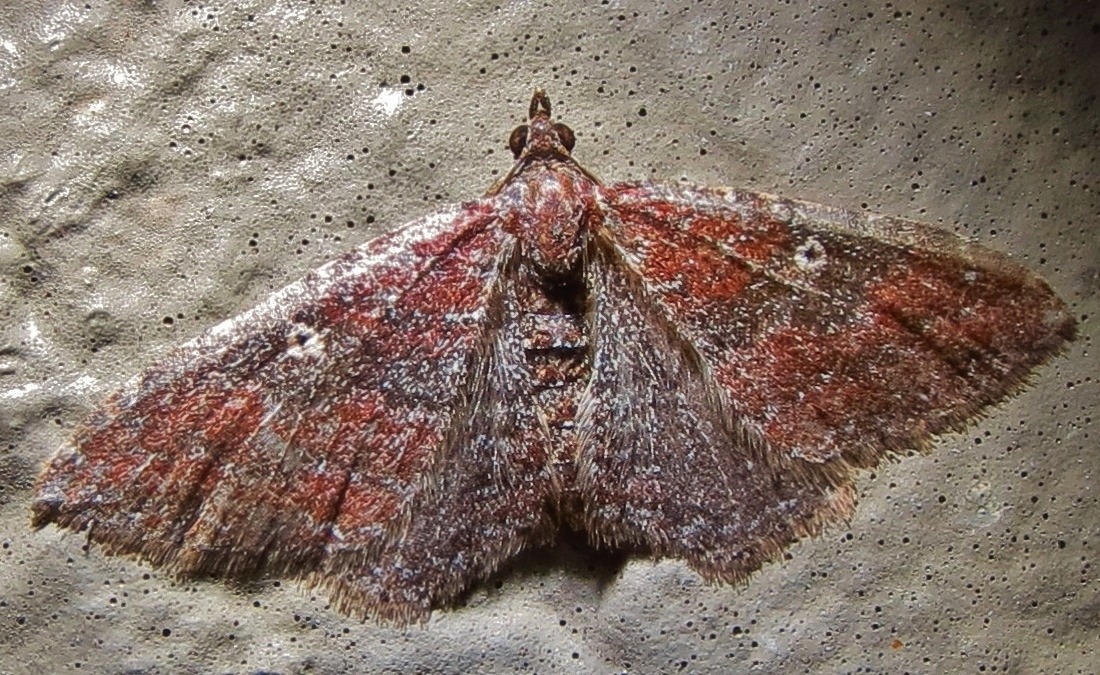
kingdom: Animalia
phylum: Arthropoda
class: Insecta
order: Lepidoptera
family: Geometridae
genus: Orthonama
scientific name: Orthonama obstipata
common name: The gem
